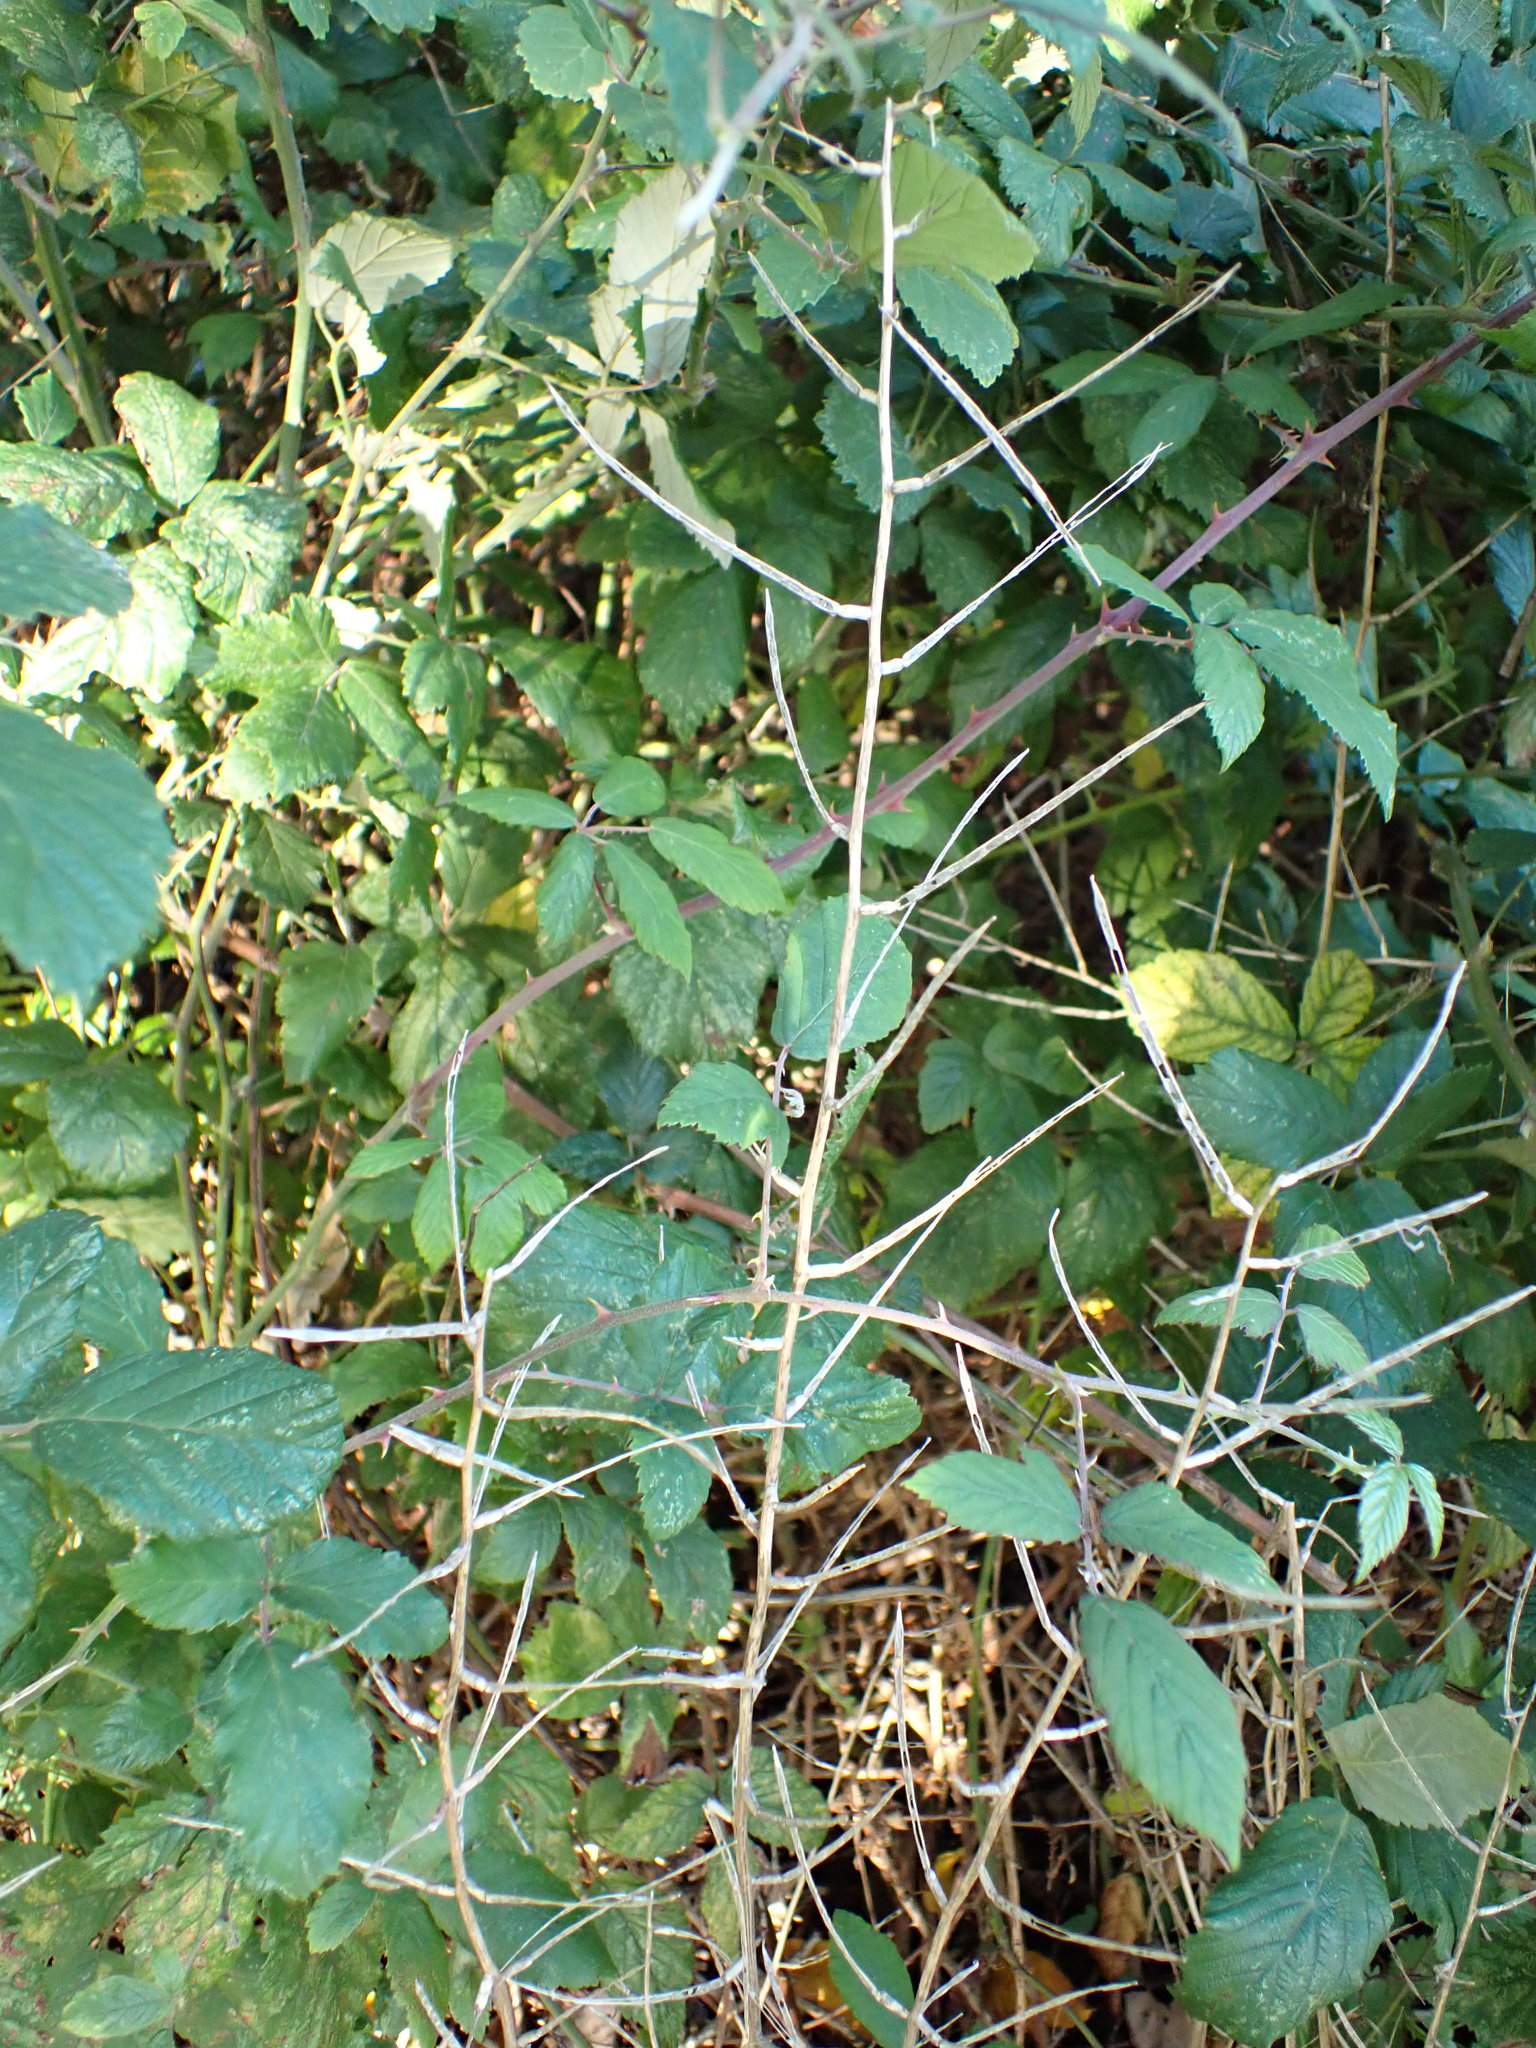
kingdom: Plantae
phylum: Tracheophyta
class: Magnoliopsida
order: Brassicales
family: Brassicaceae
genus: Alliaria
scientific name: Alliaria petiolata
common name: Garlic mustard
